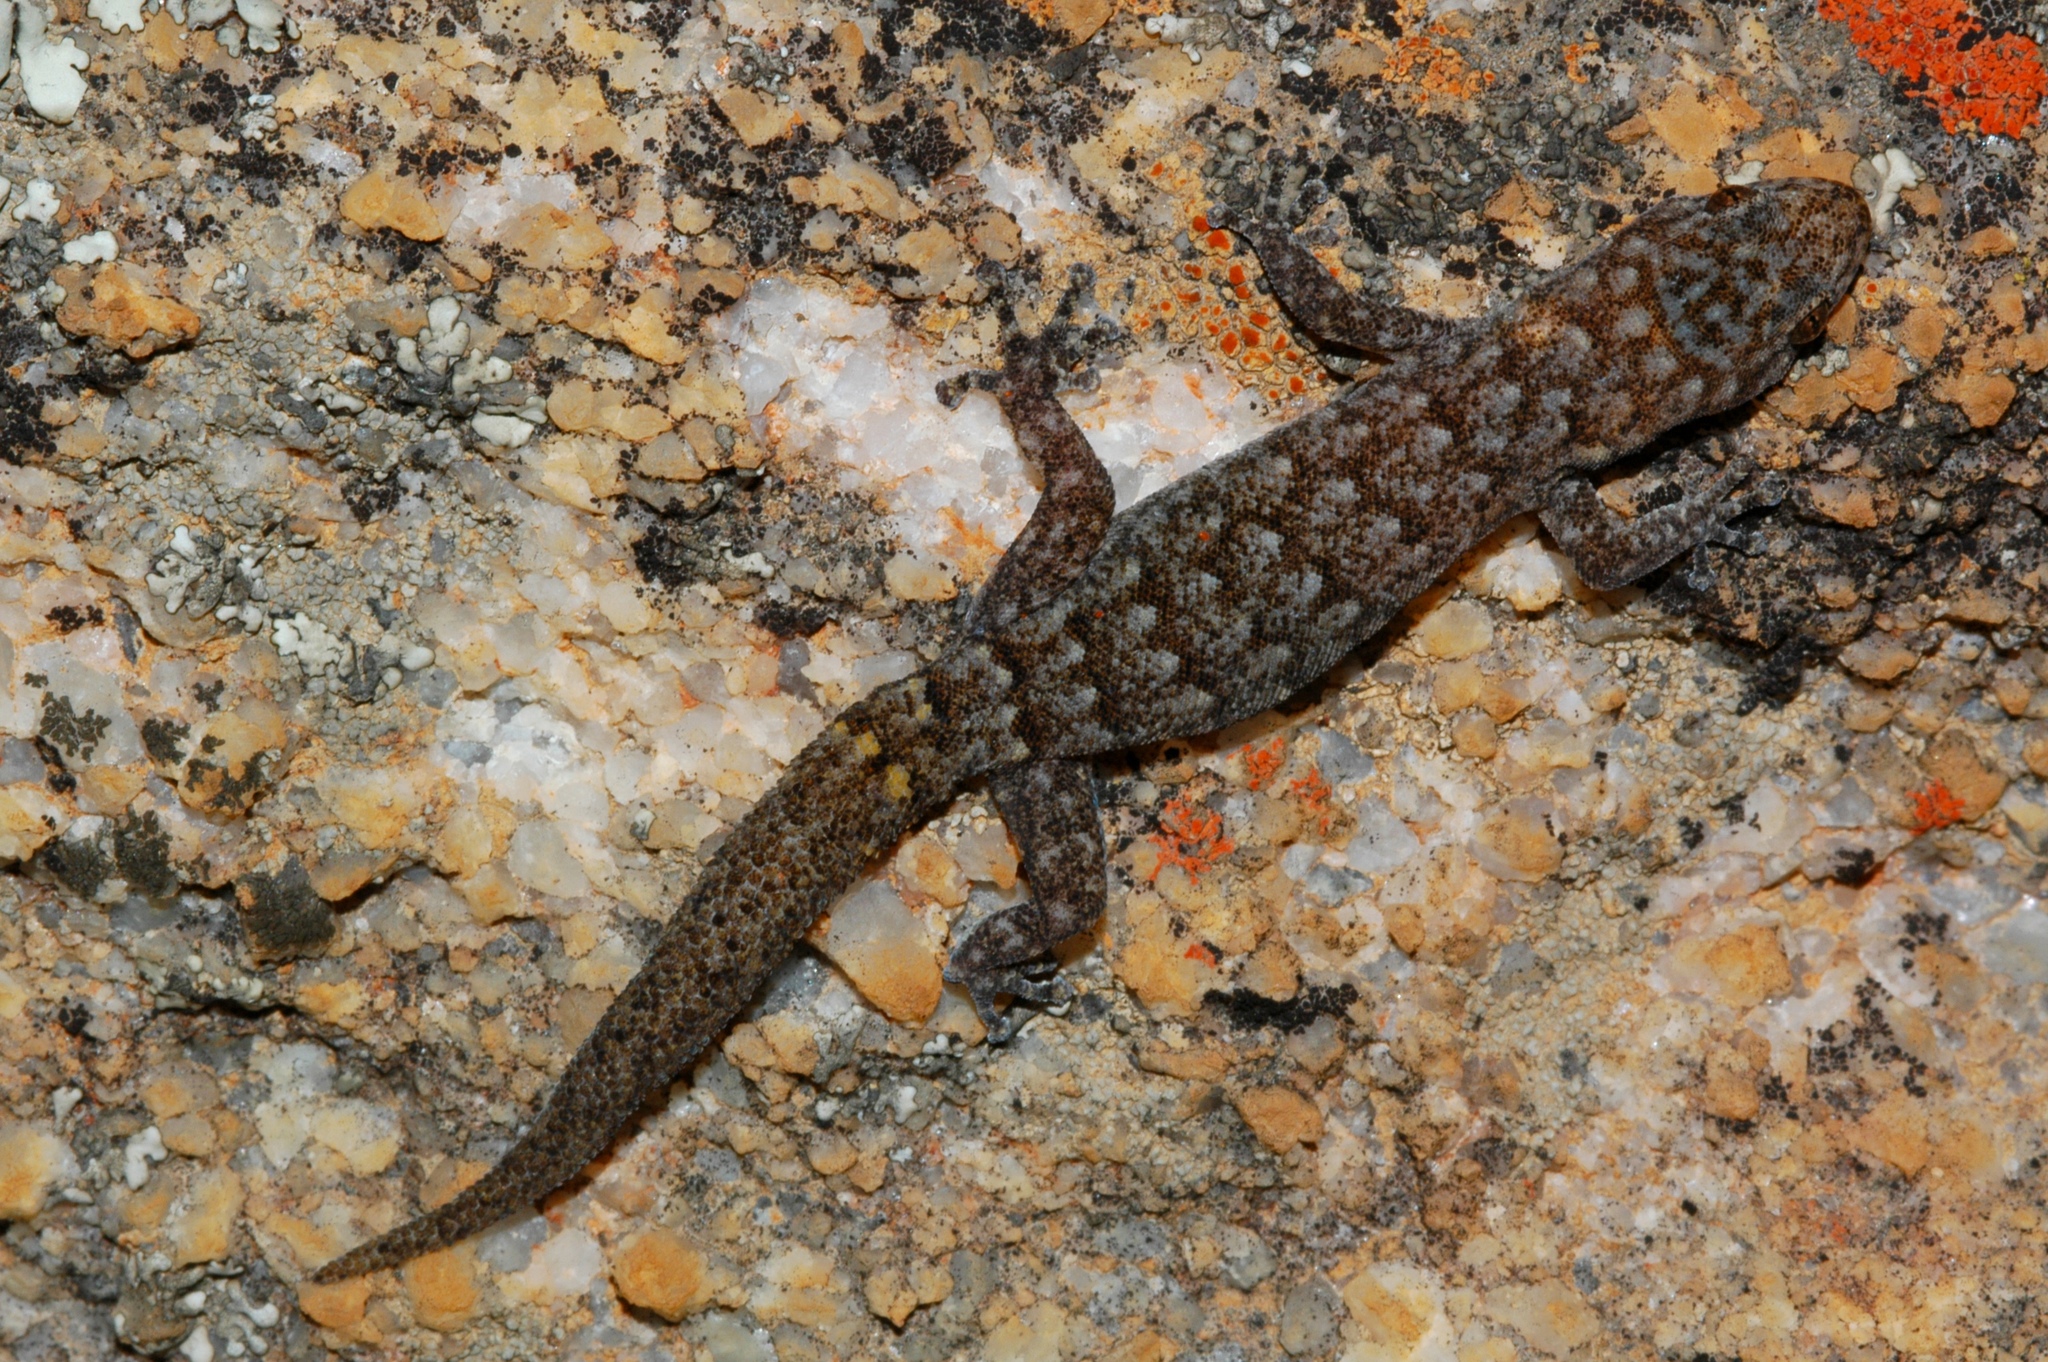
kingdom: Animalia
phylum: Chordata
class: Squamata
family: Gekkonidae
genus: Goggia
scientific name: Goggia hexapora
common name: Cedarberg dwarf leaf-toed gecko
